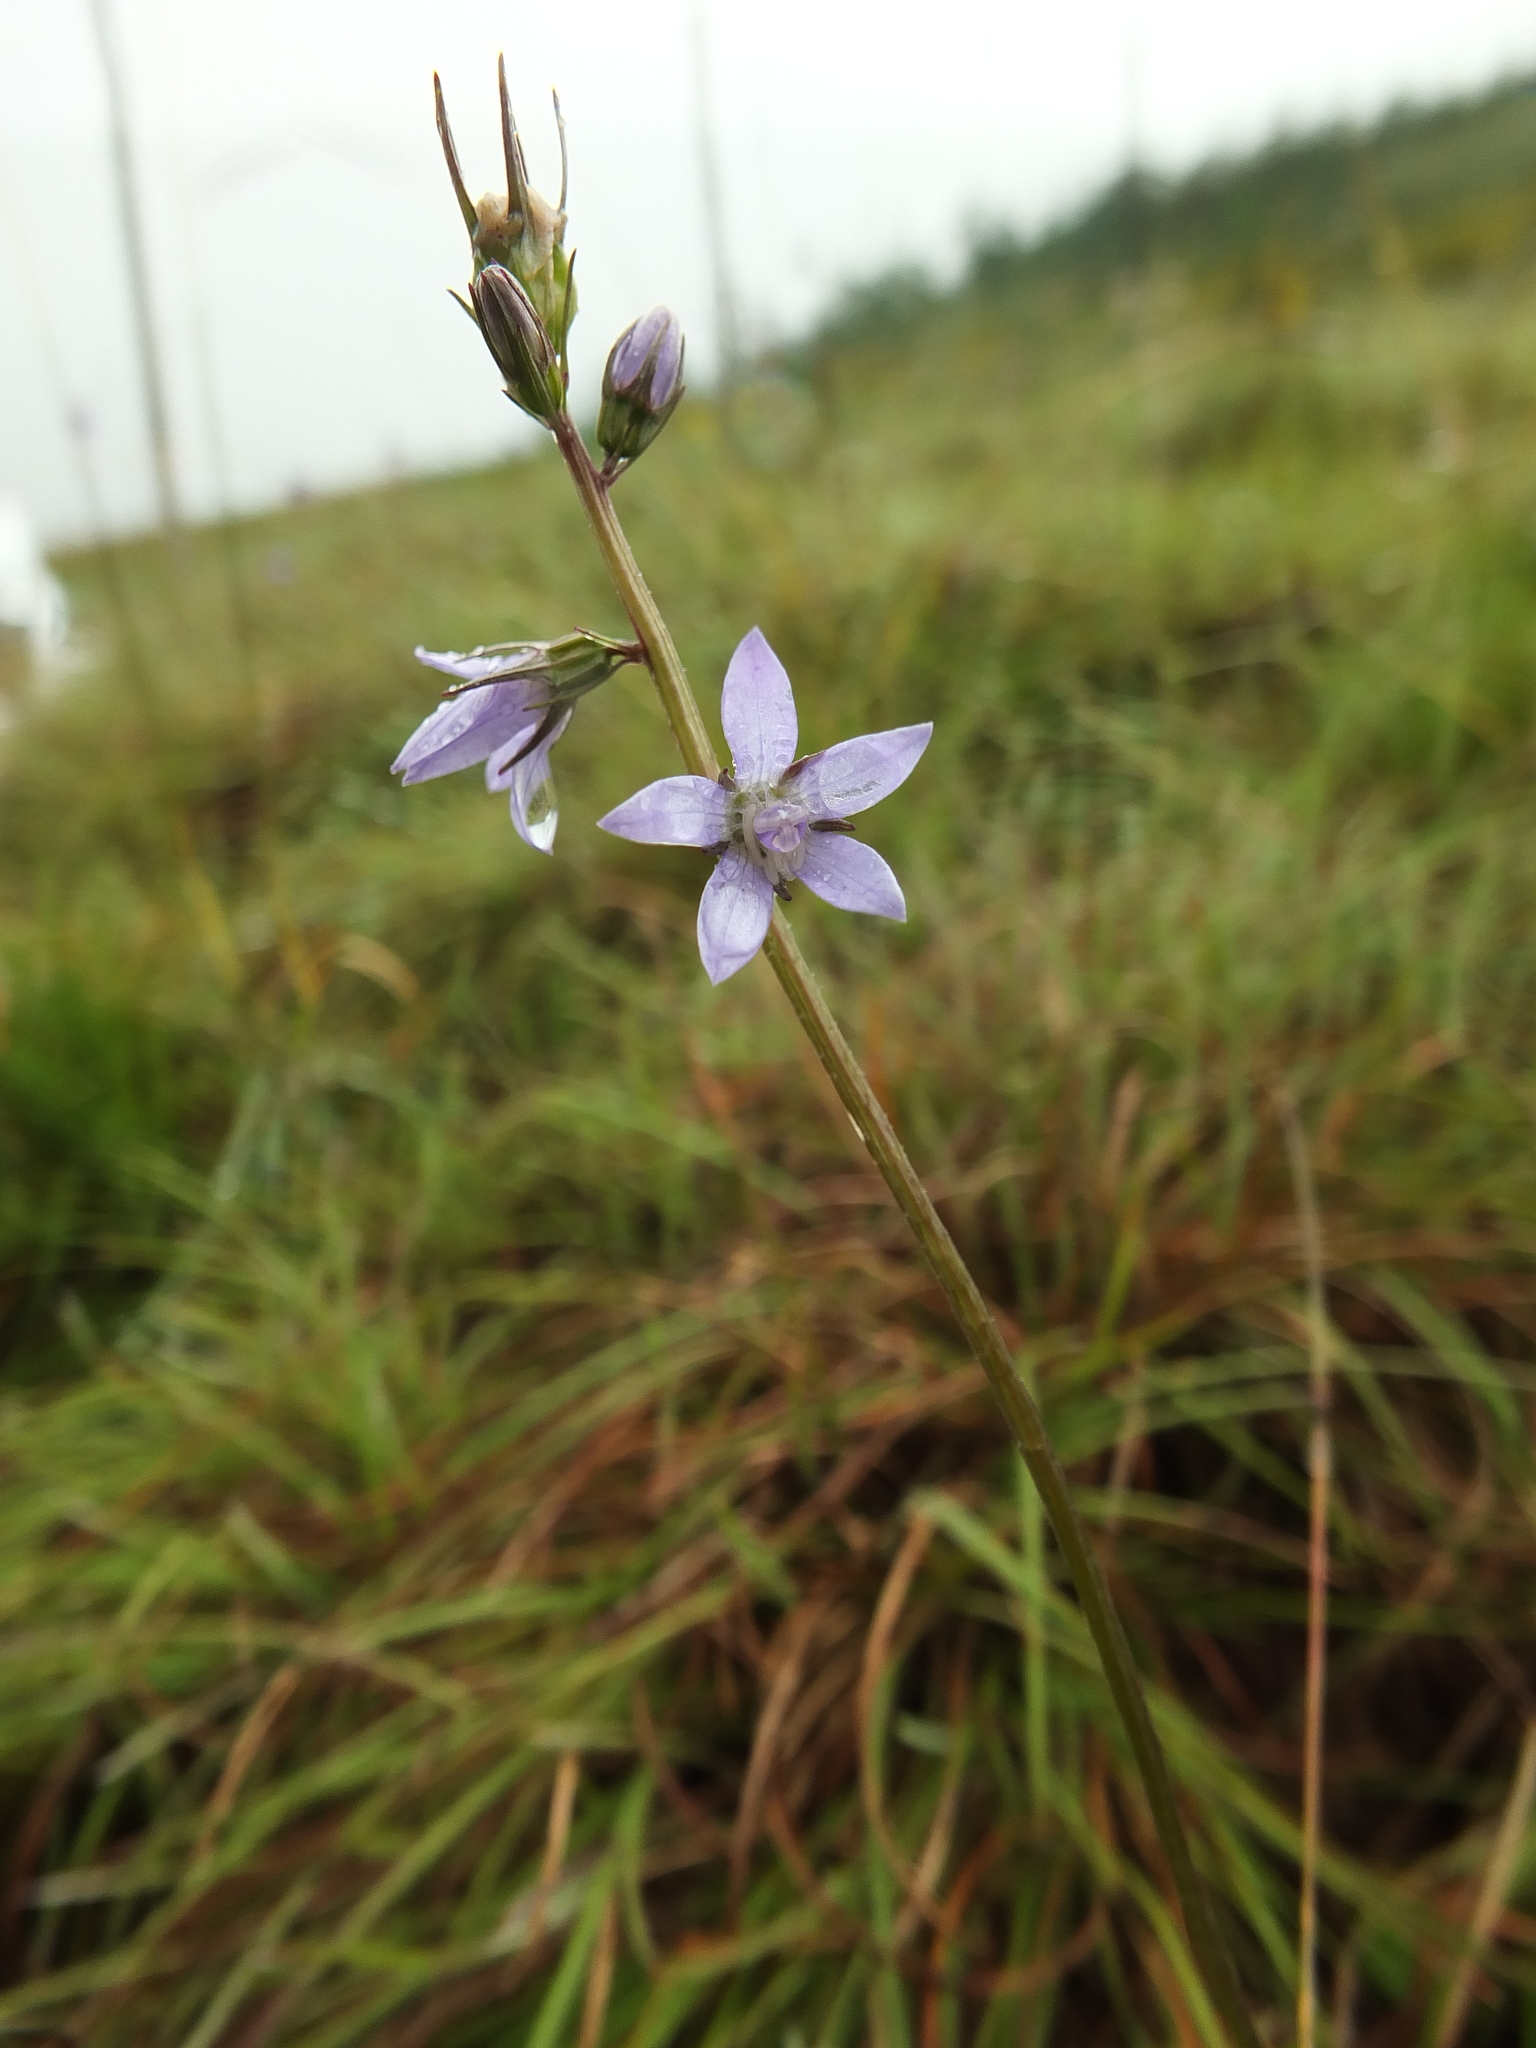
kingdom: Plantae
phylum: Tracheophyta
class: Magnoliopsida
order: Asterales
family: Campanulaceae
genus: Asyneuma
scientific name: Asyneuma fulgens
